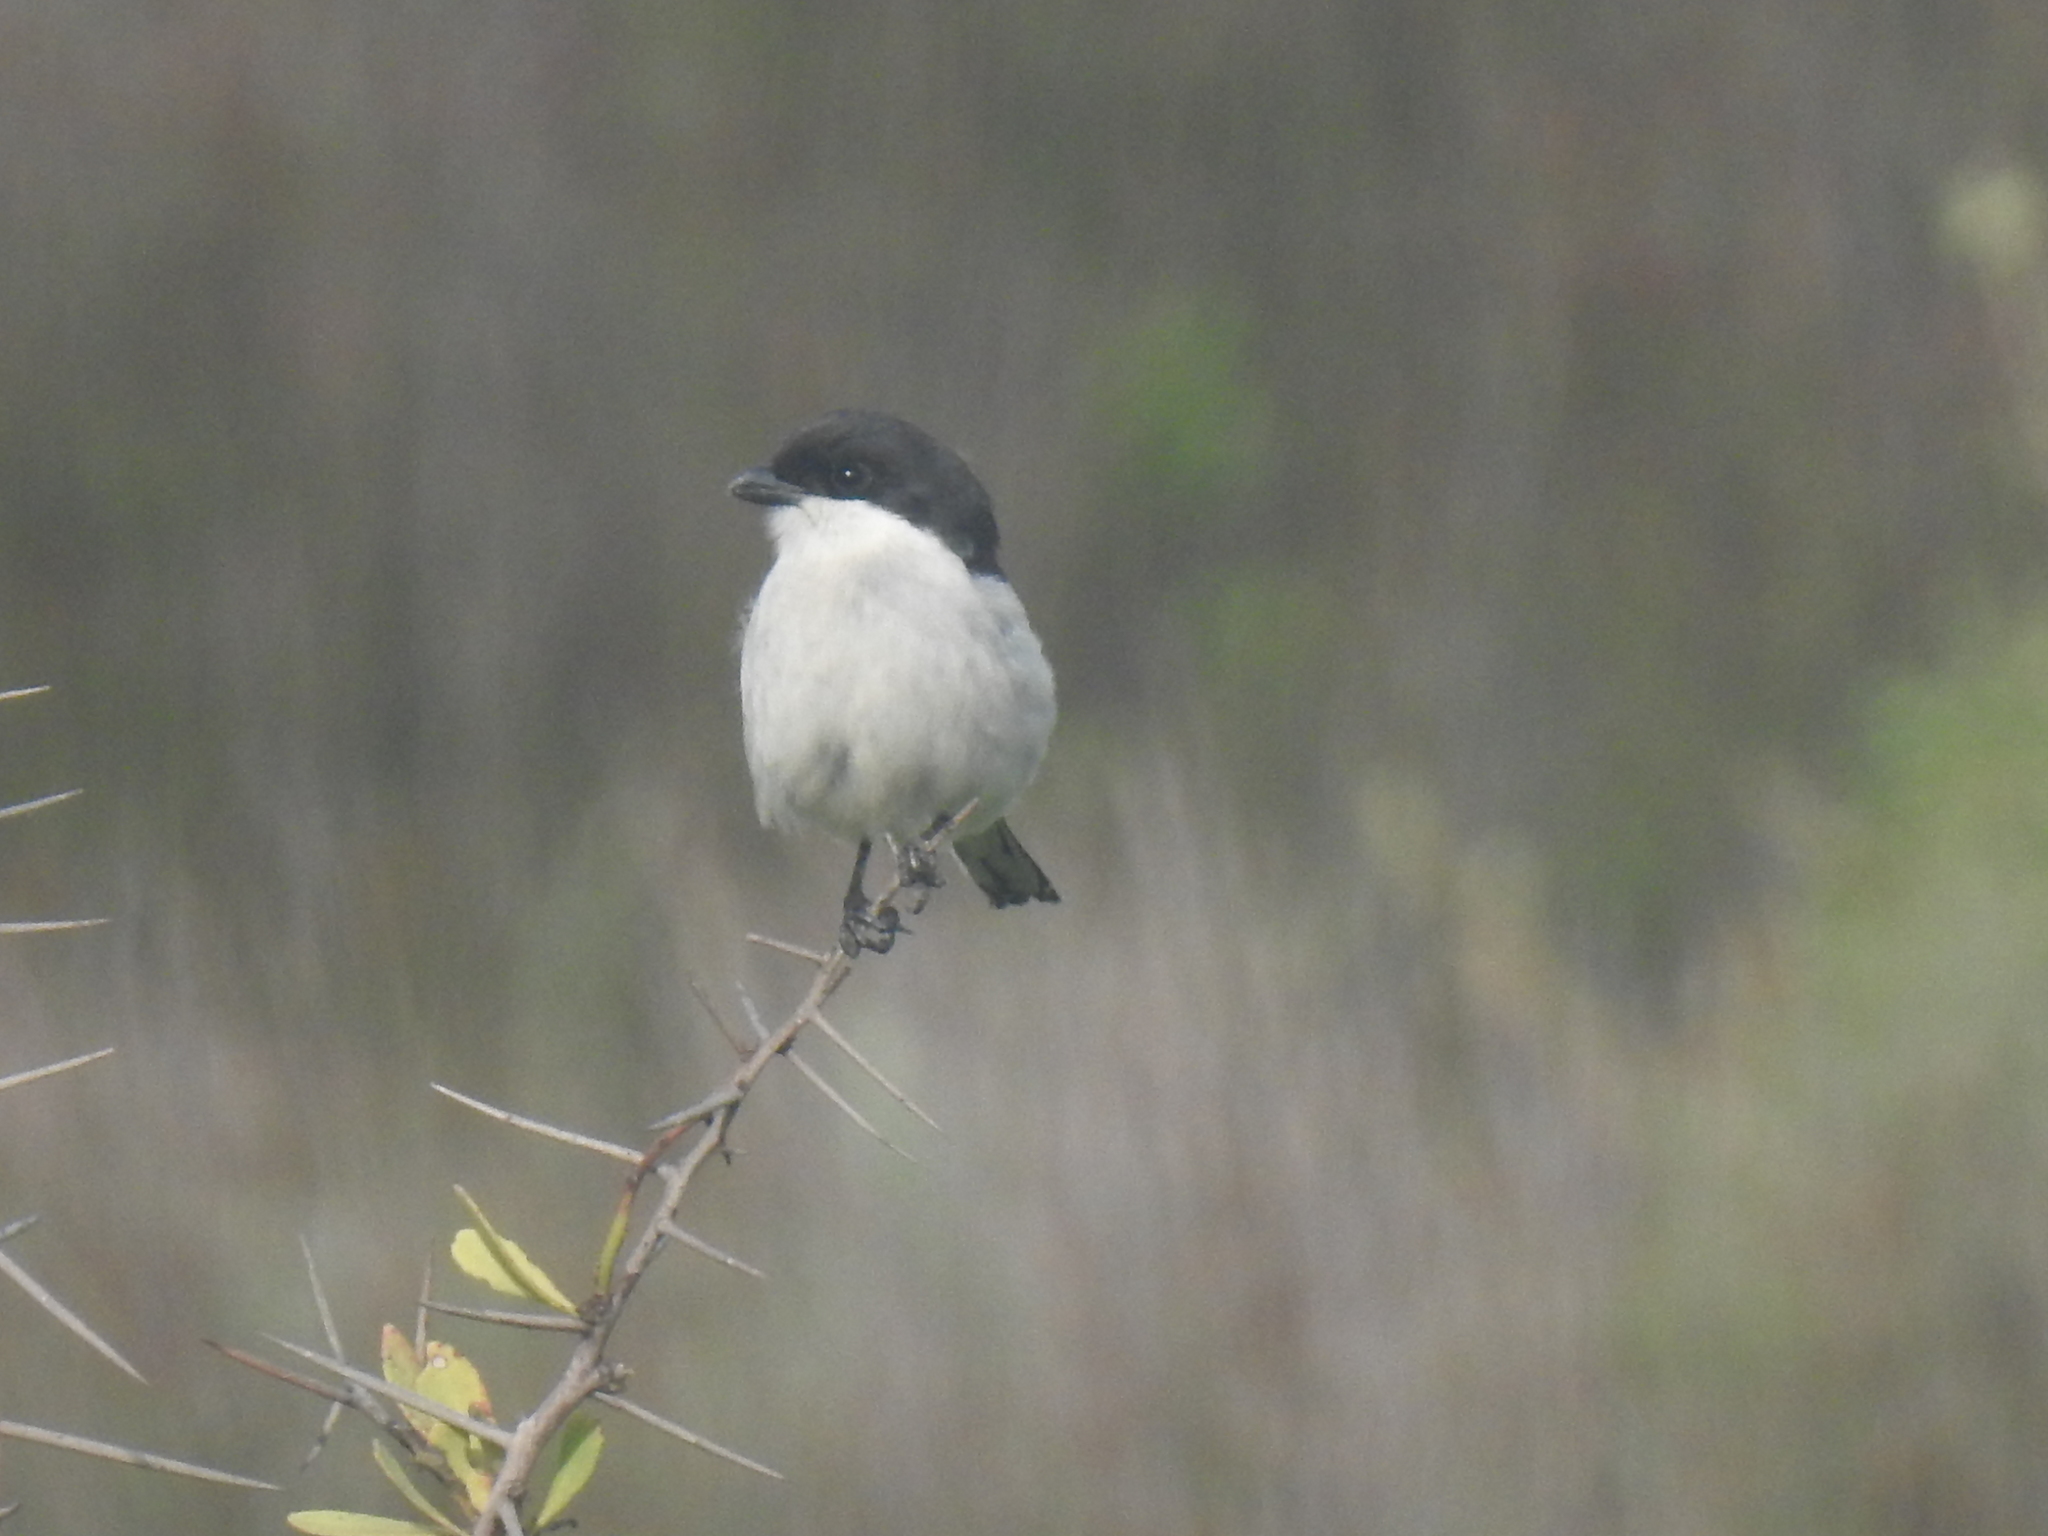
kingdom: Animalia
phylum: Chordata
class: Aves
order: Passeriformes
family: Laniidae
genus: Lanius
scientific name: Lanius collaris
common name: Southern fiscal
